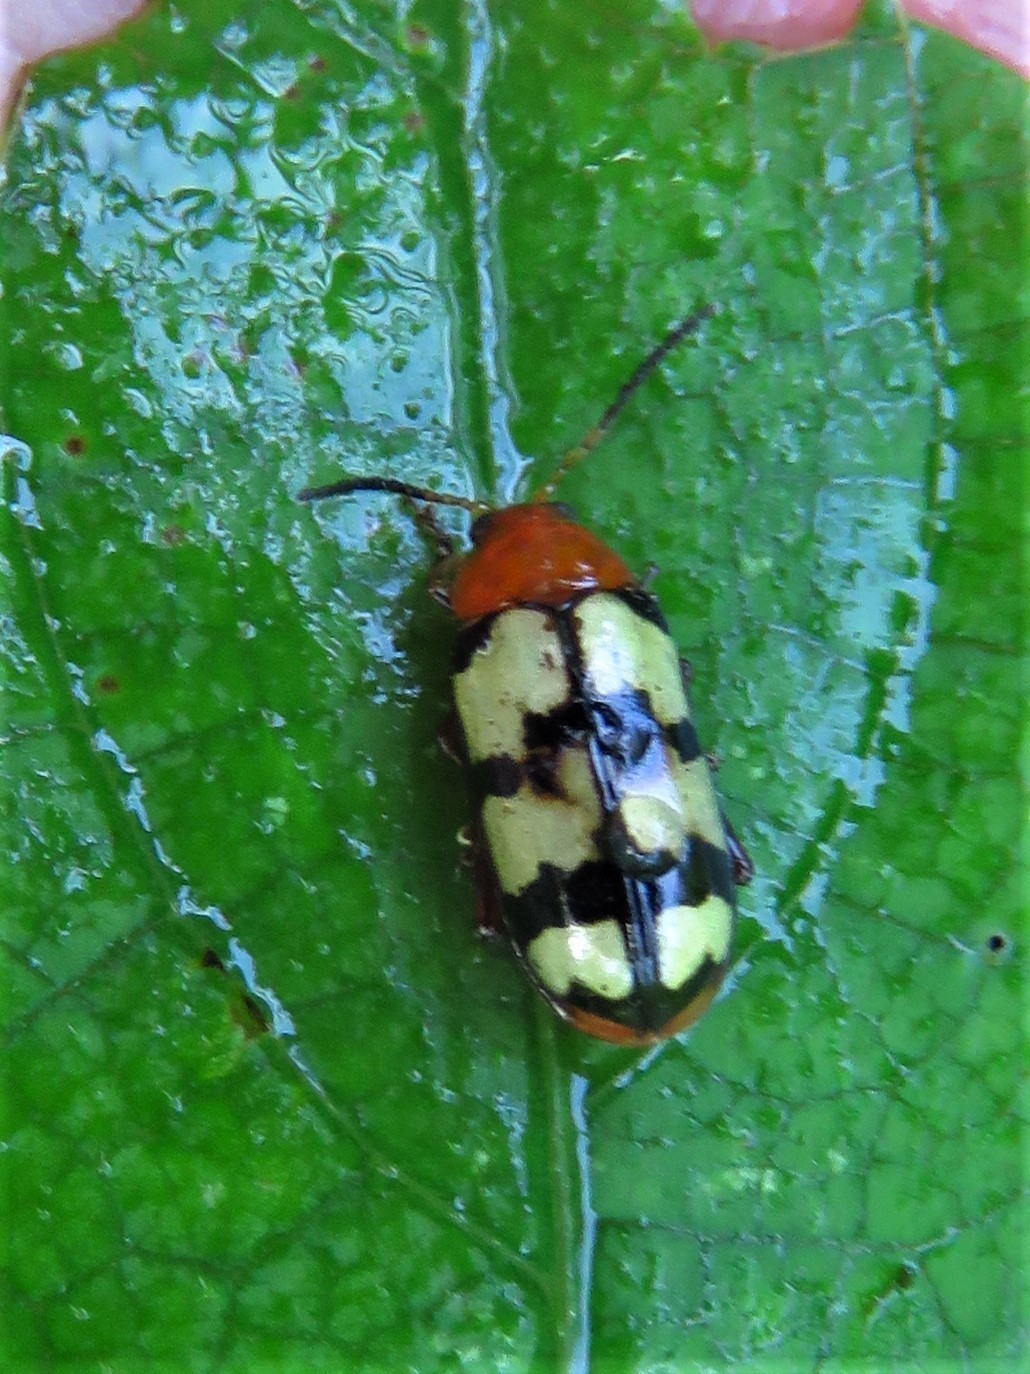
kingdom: Animalia
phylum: Arthropoda
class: Insecta
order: Coleoptera
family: Chrysomelidae
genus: Disonycha
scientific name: Disonycha
